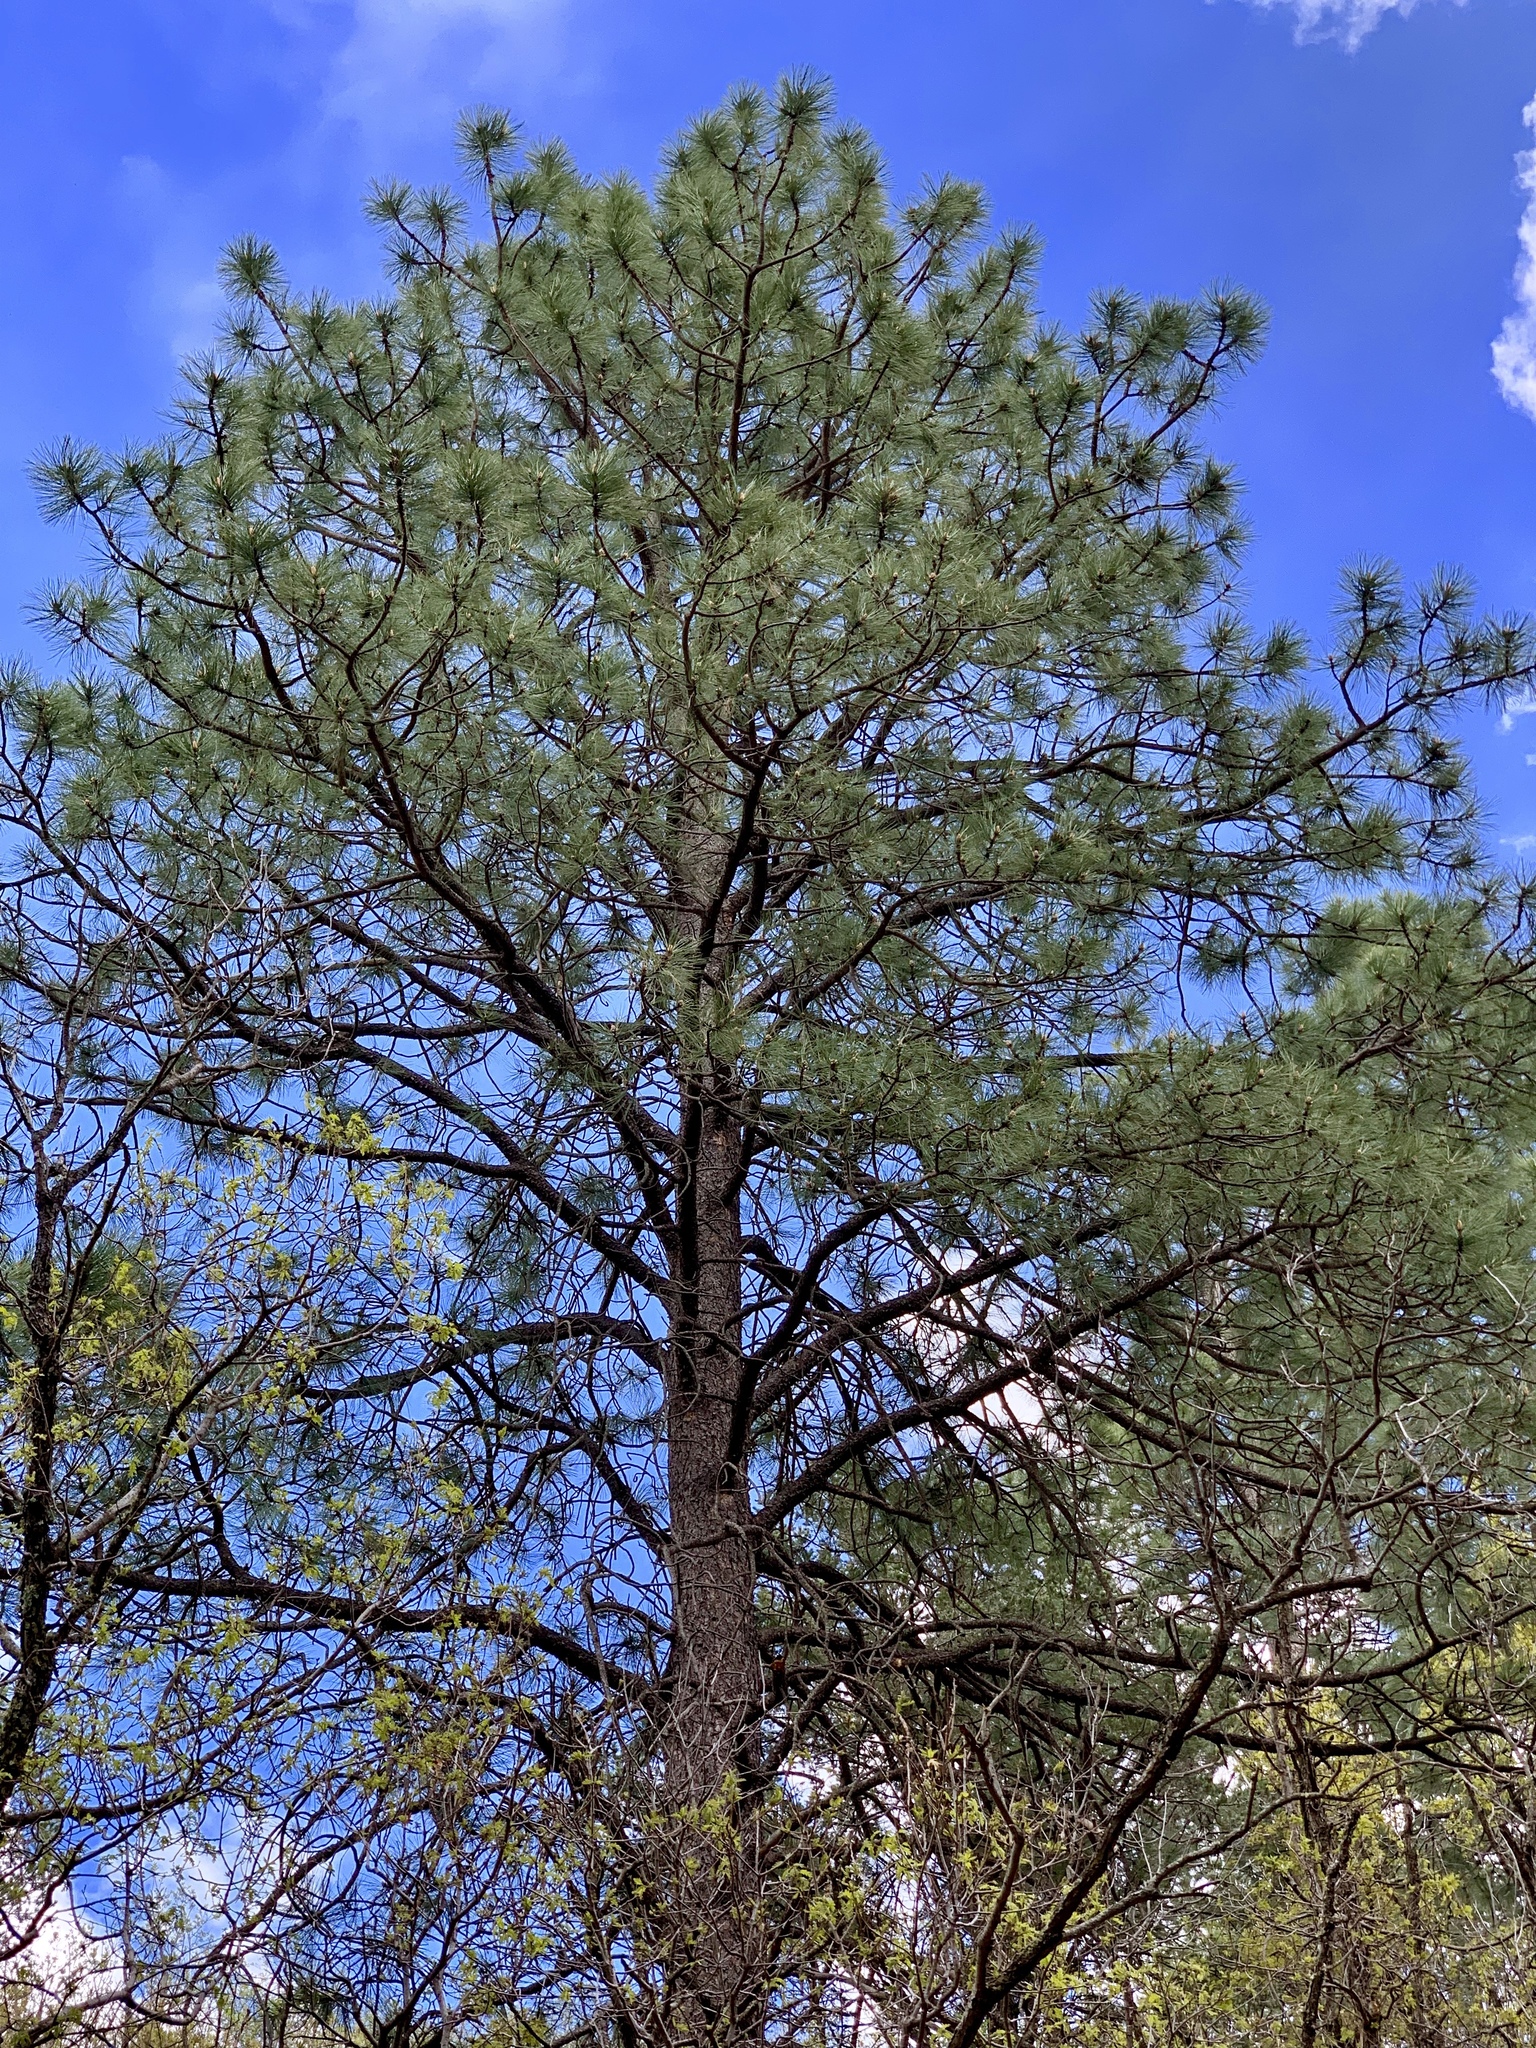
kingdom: Plantae
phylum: Tracheophyta
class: Pinopsida
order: Pinales
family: Pinaceae
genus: Pinus
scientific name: Pinus ponderosa
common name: Western yellow-pine
